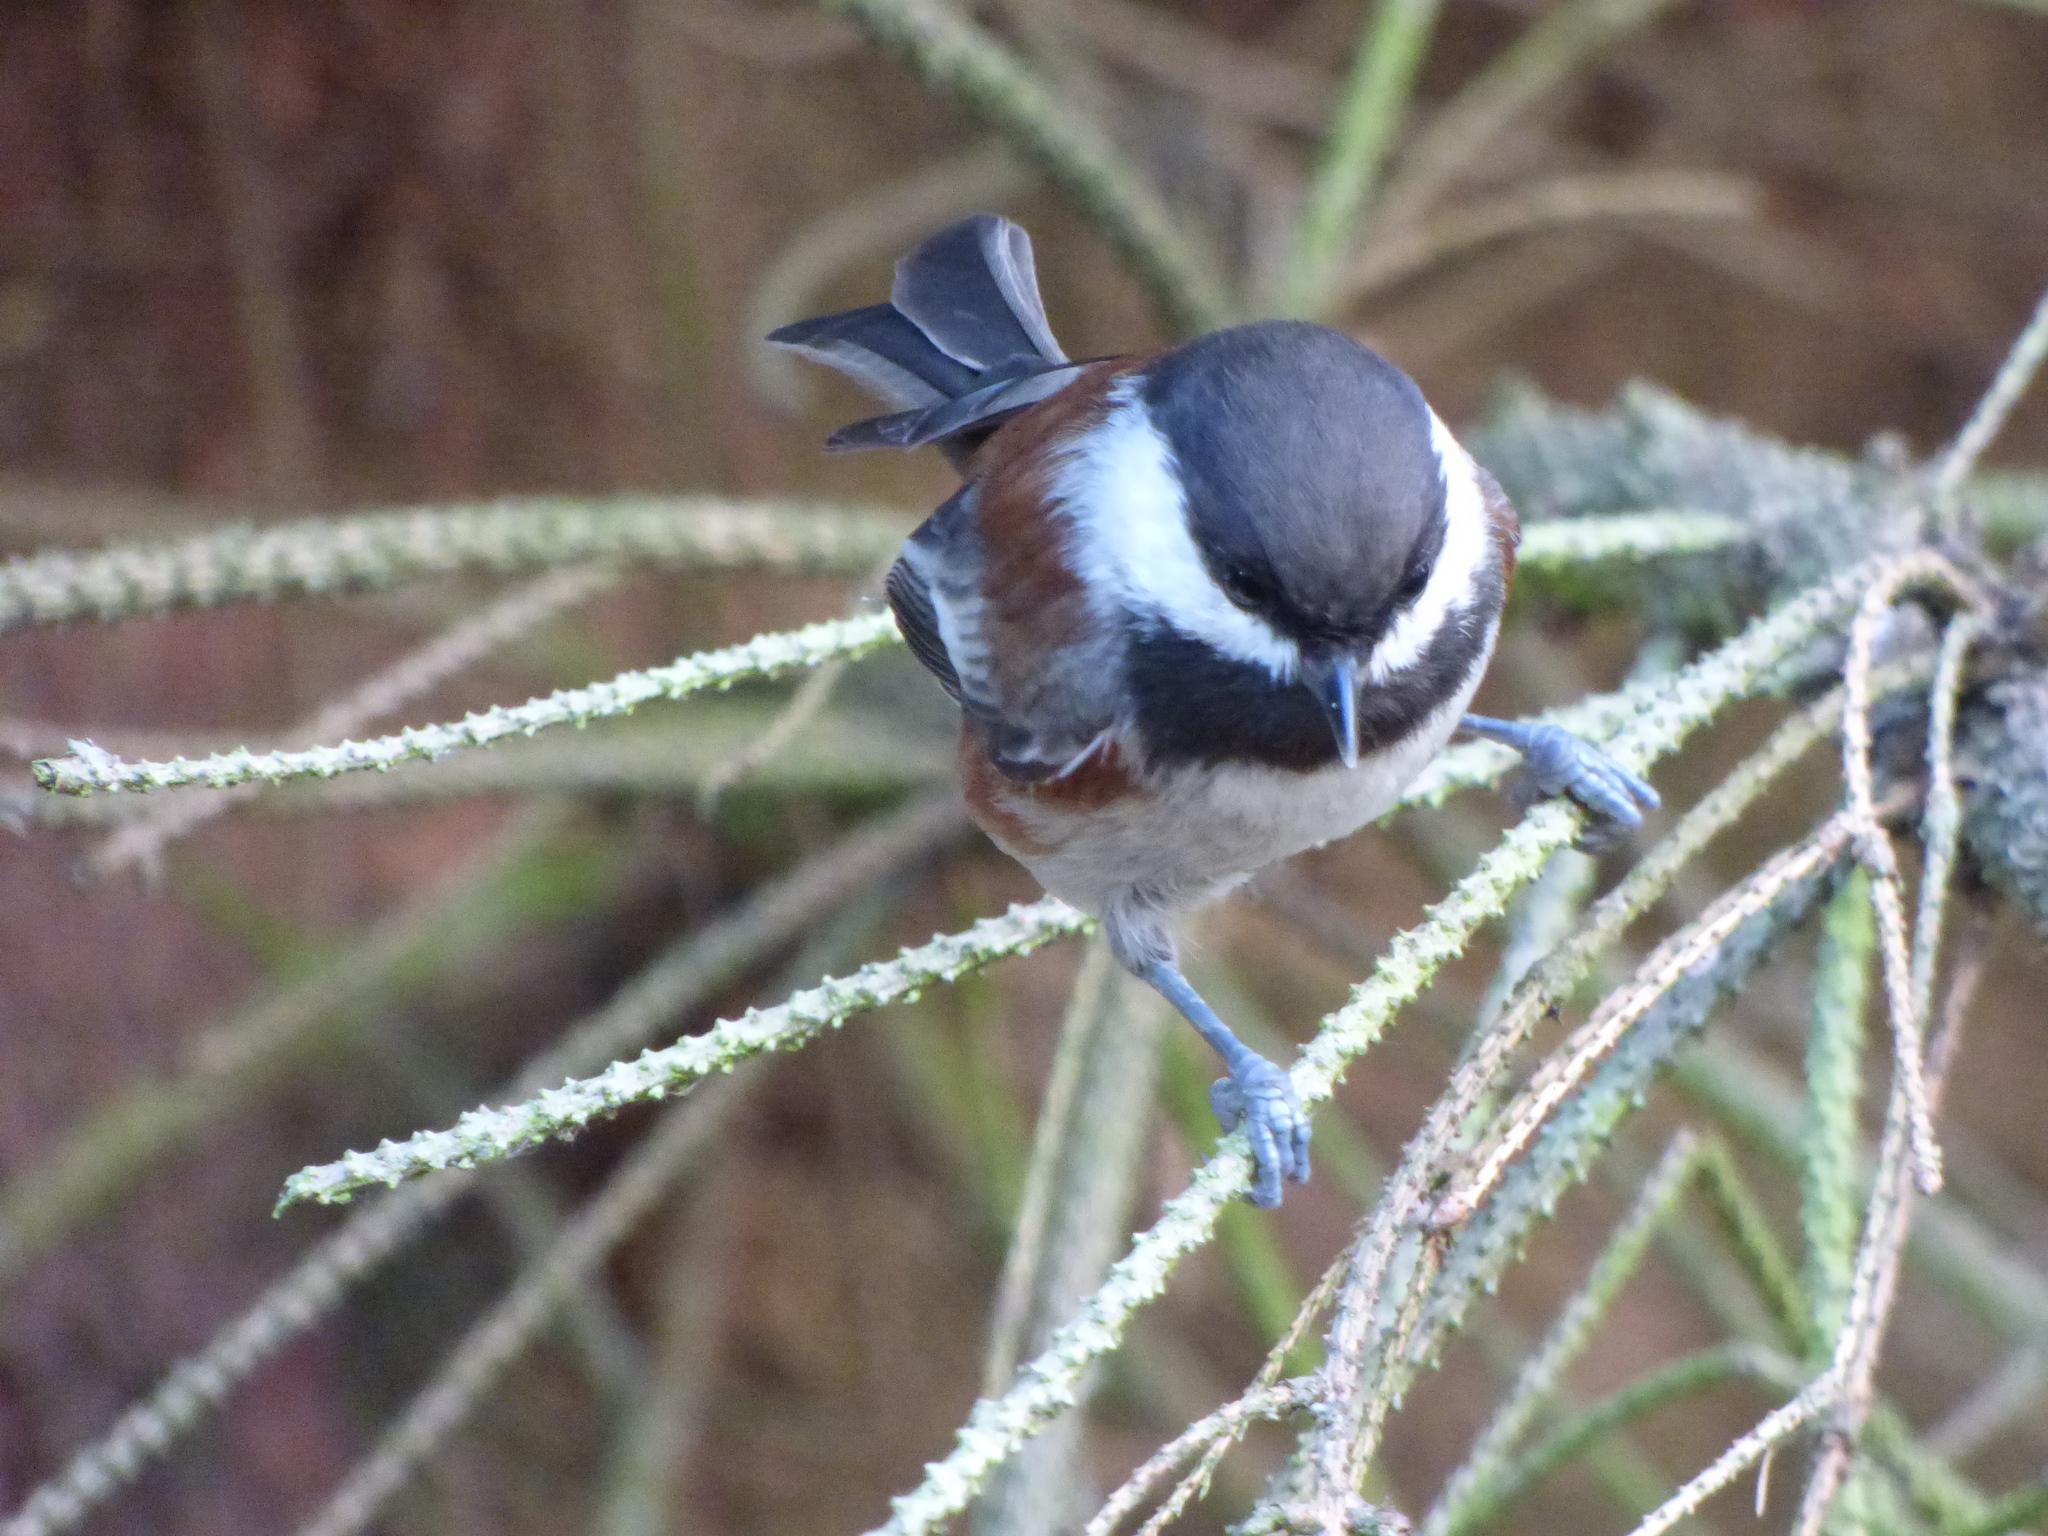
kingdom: Animalia
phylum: Chordata
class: Aves
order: Passeriformes
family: Paridae
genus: Poecile
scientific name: Poecile rufescens
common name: Chestnut-backed chickadee
